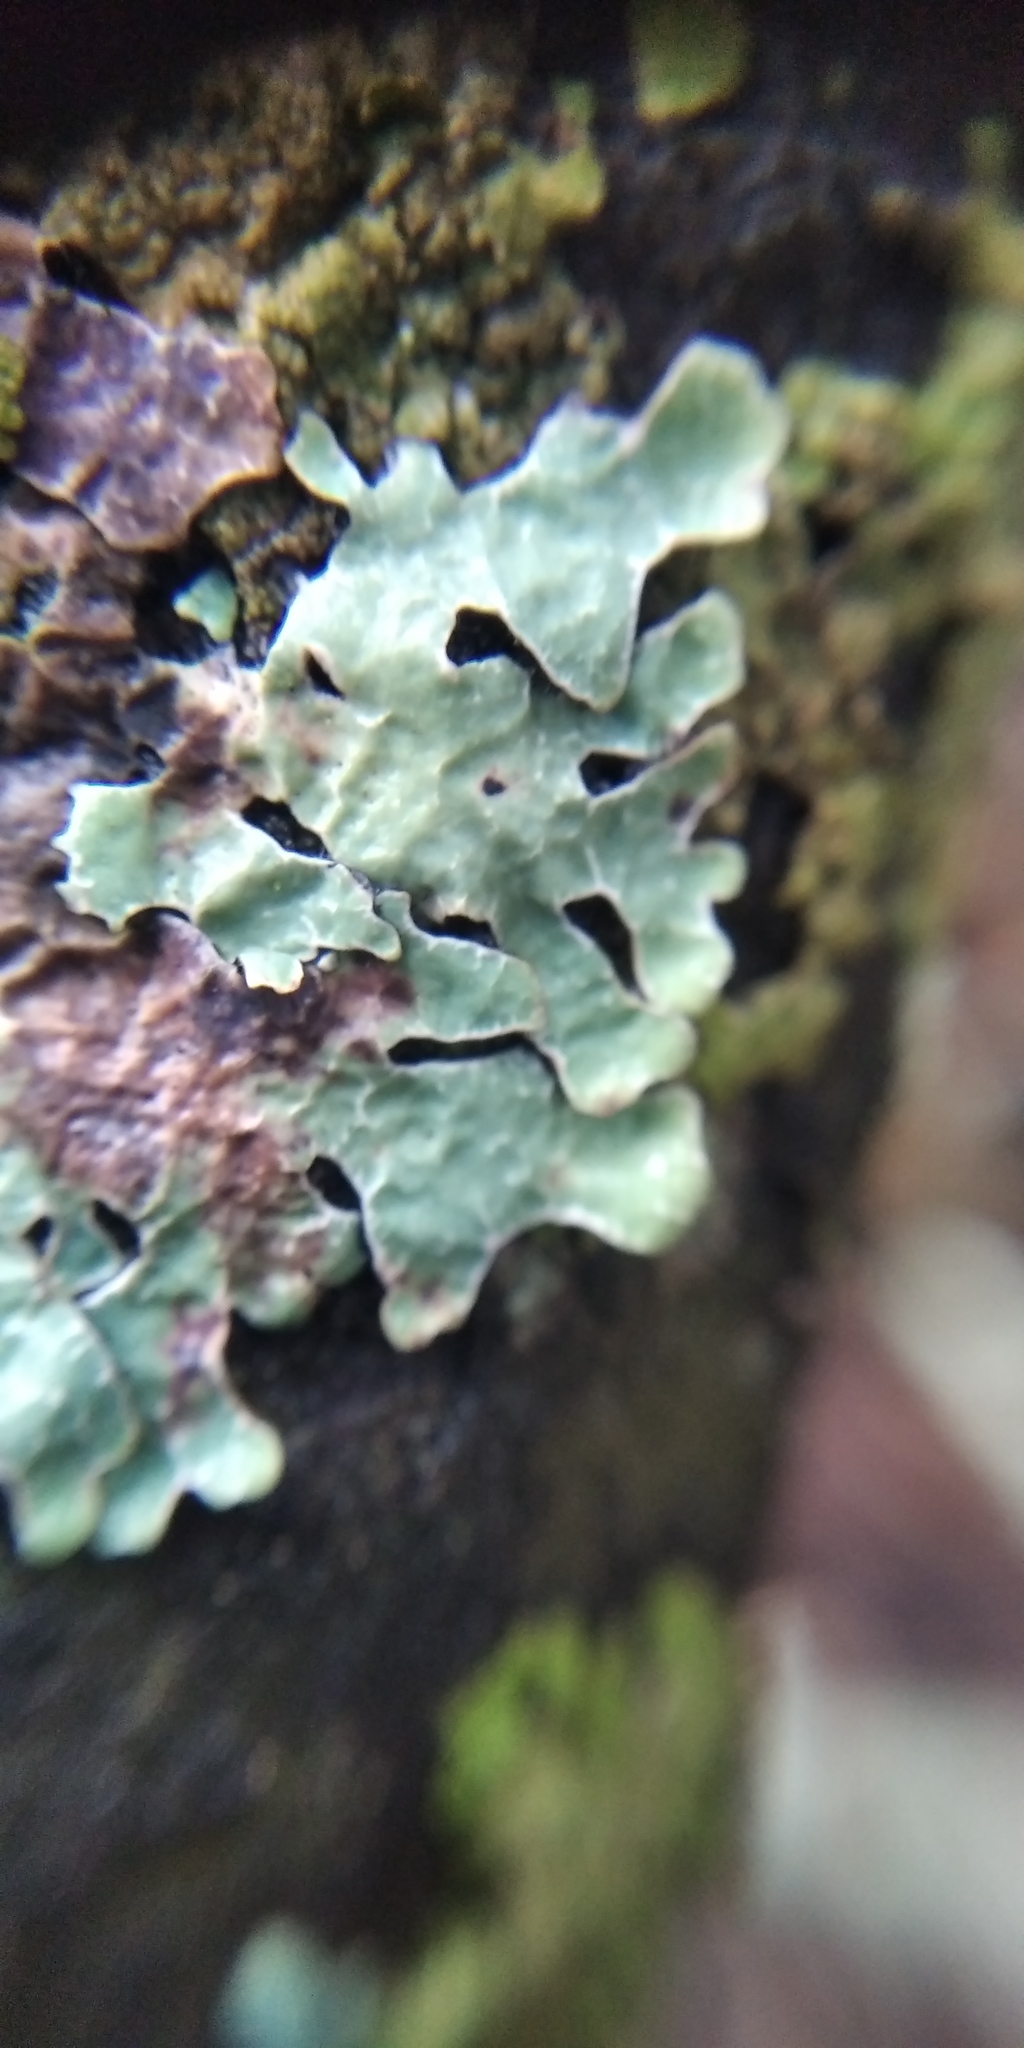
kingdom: Fungi
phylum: Ascomycota
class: Lecanoromycetes
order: Lecanorales
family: Parmeliaceae
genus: Parmelia
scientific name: Parmelia sulcata
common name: Netted shield lichen
